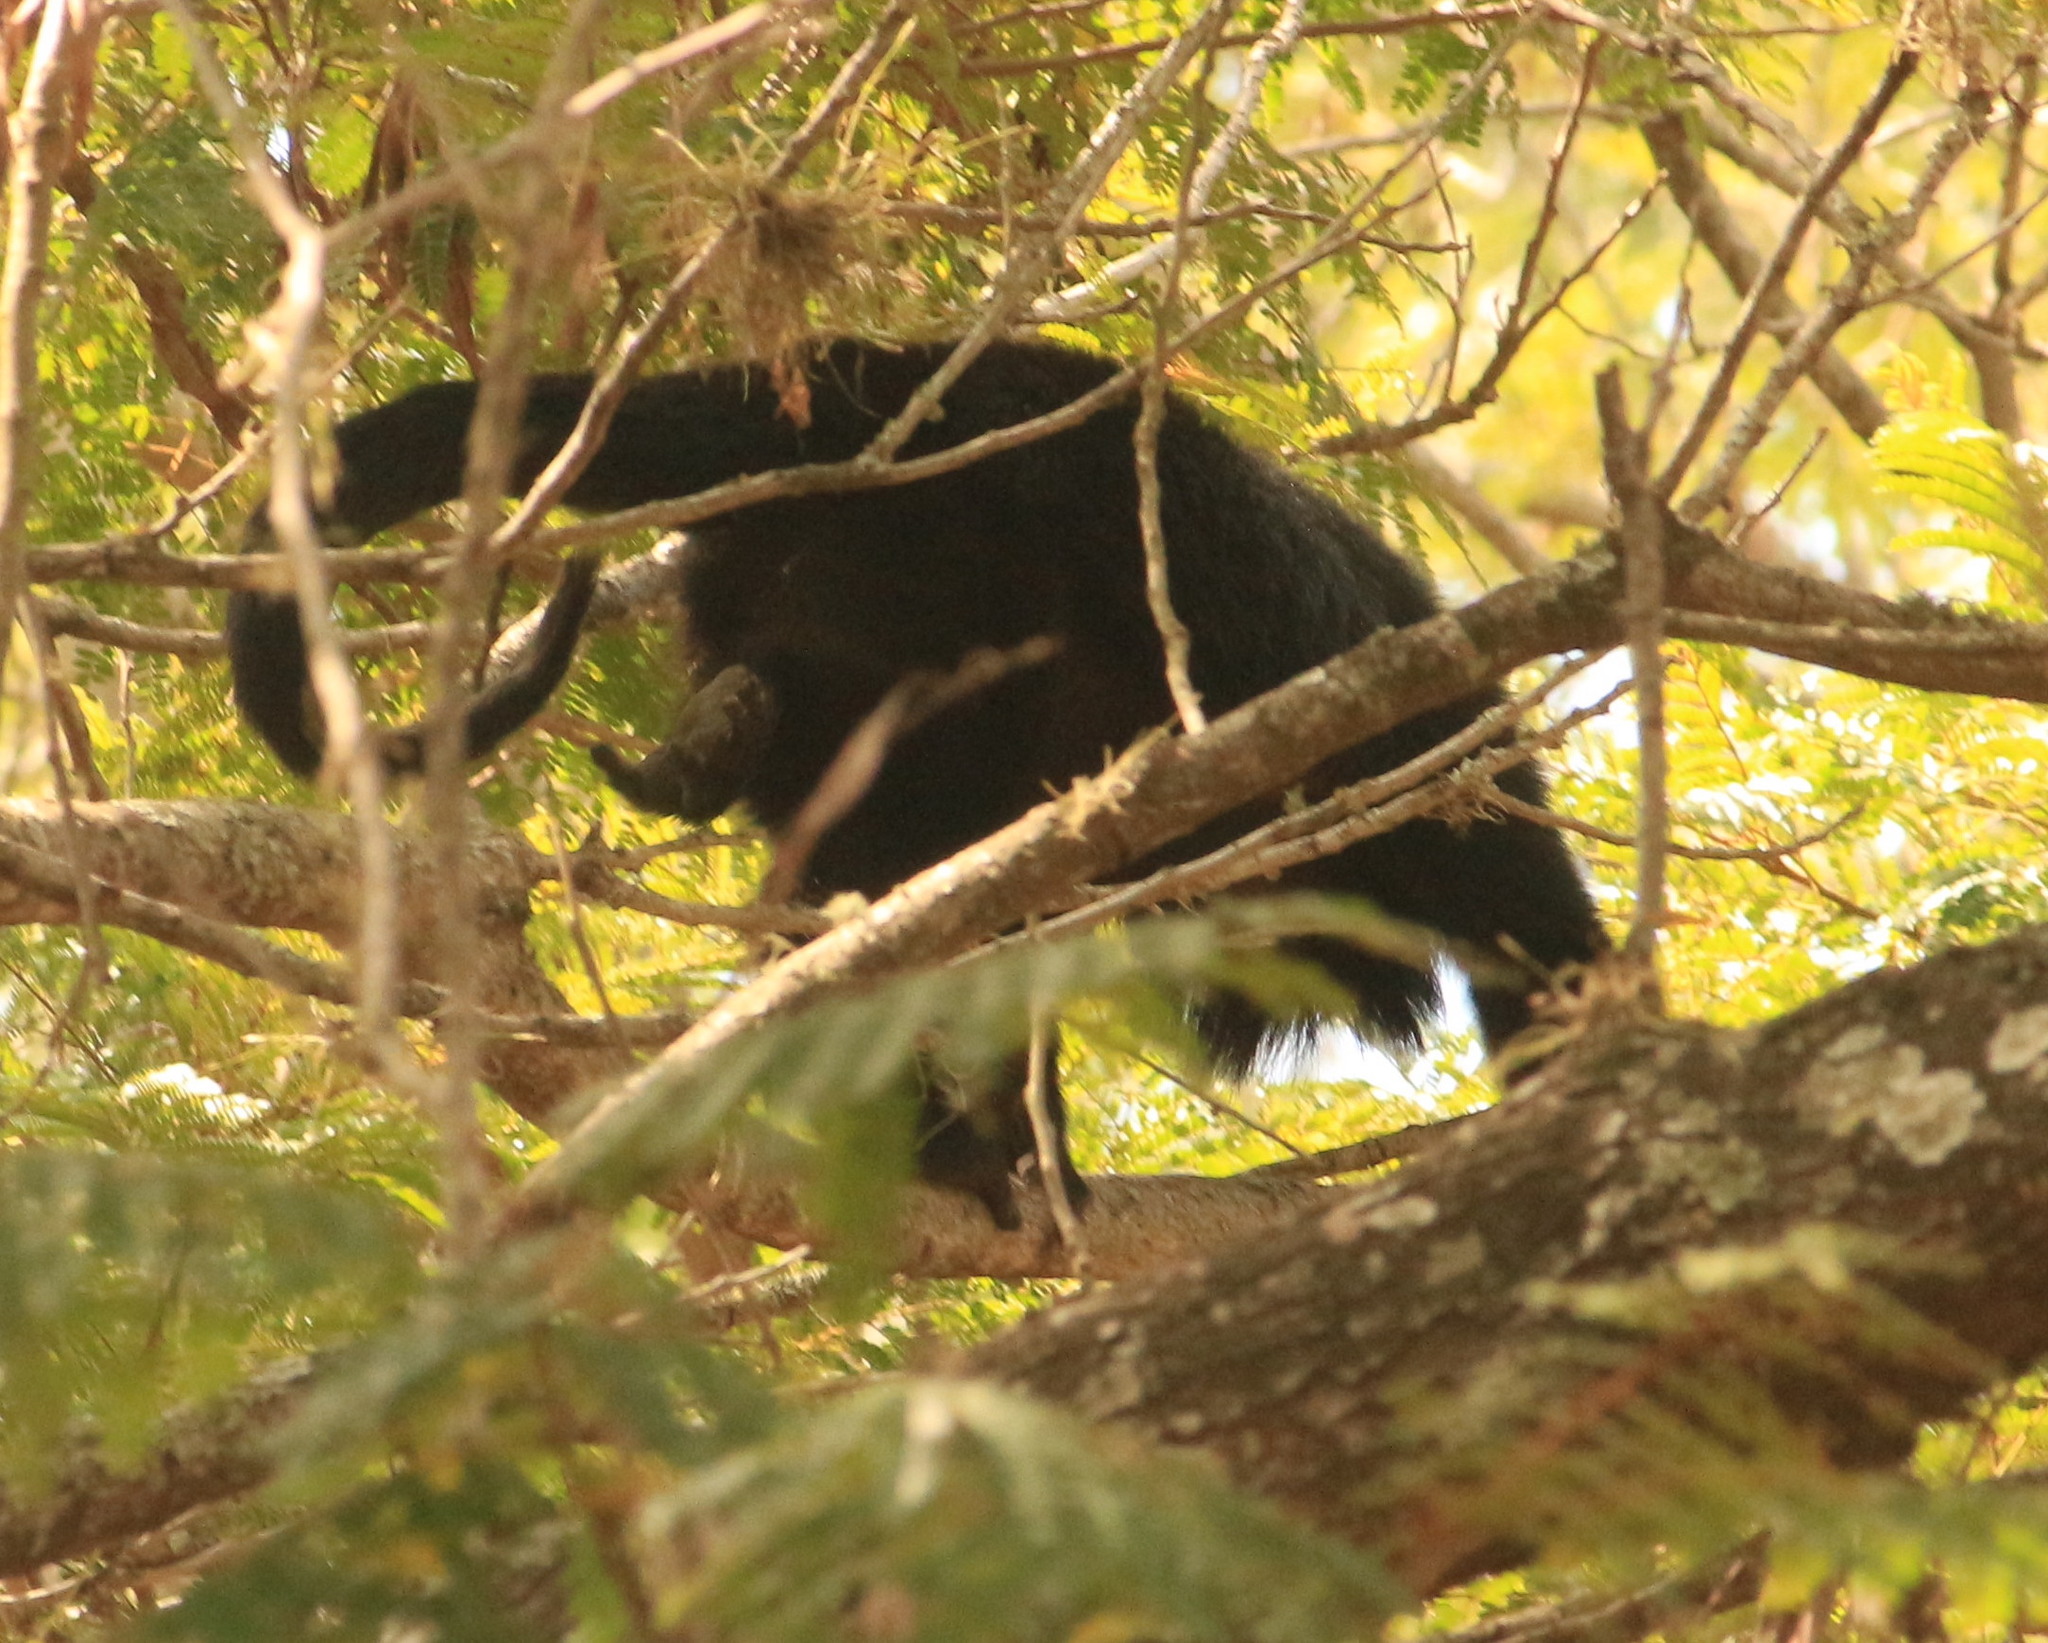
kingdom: Animalia
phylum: Chordata
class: Mammalia
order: Primates
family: Atelidae
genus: Alouatta
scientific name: Alouatta caraya
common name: Black howler
